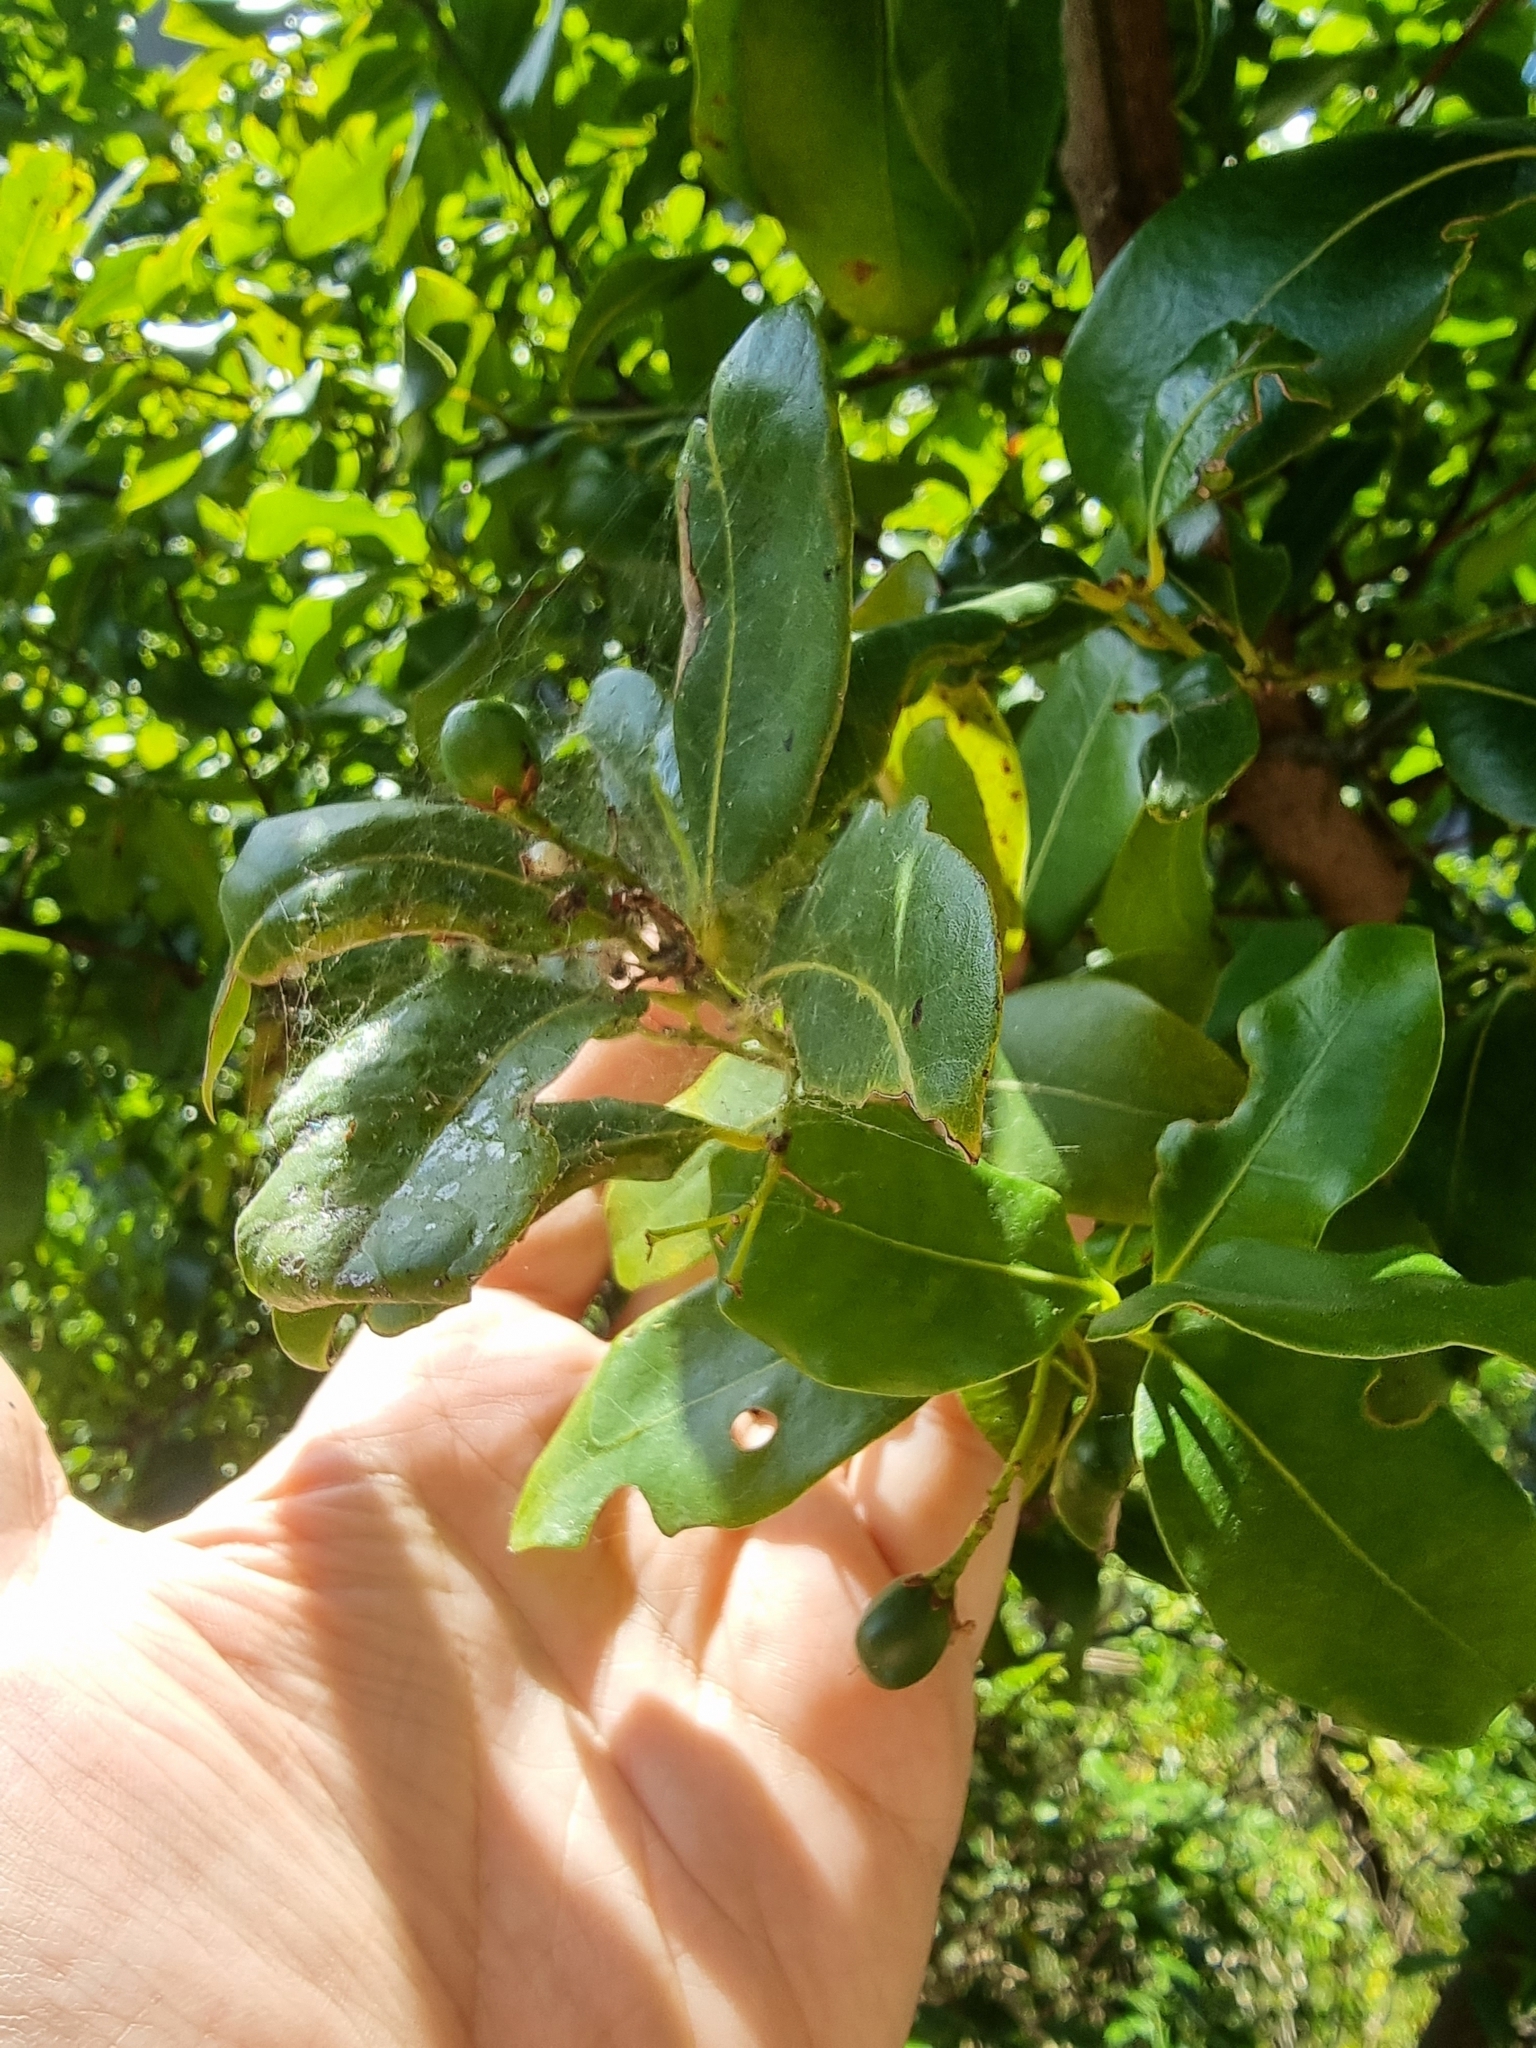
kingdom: Plantae
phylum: Tracheophyta
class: Magnoliopsida
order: Laurales
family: Lauraceae
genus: Apollonias
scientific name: Apollonias barbujana
